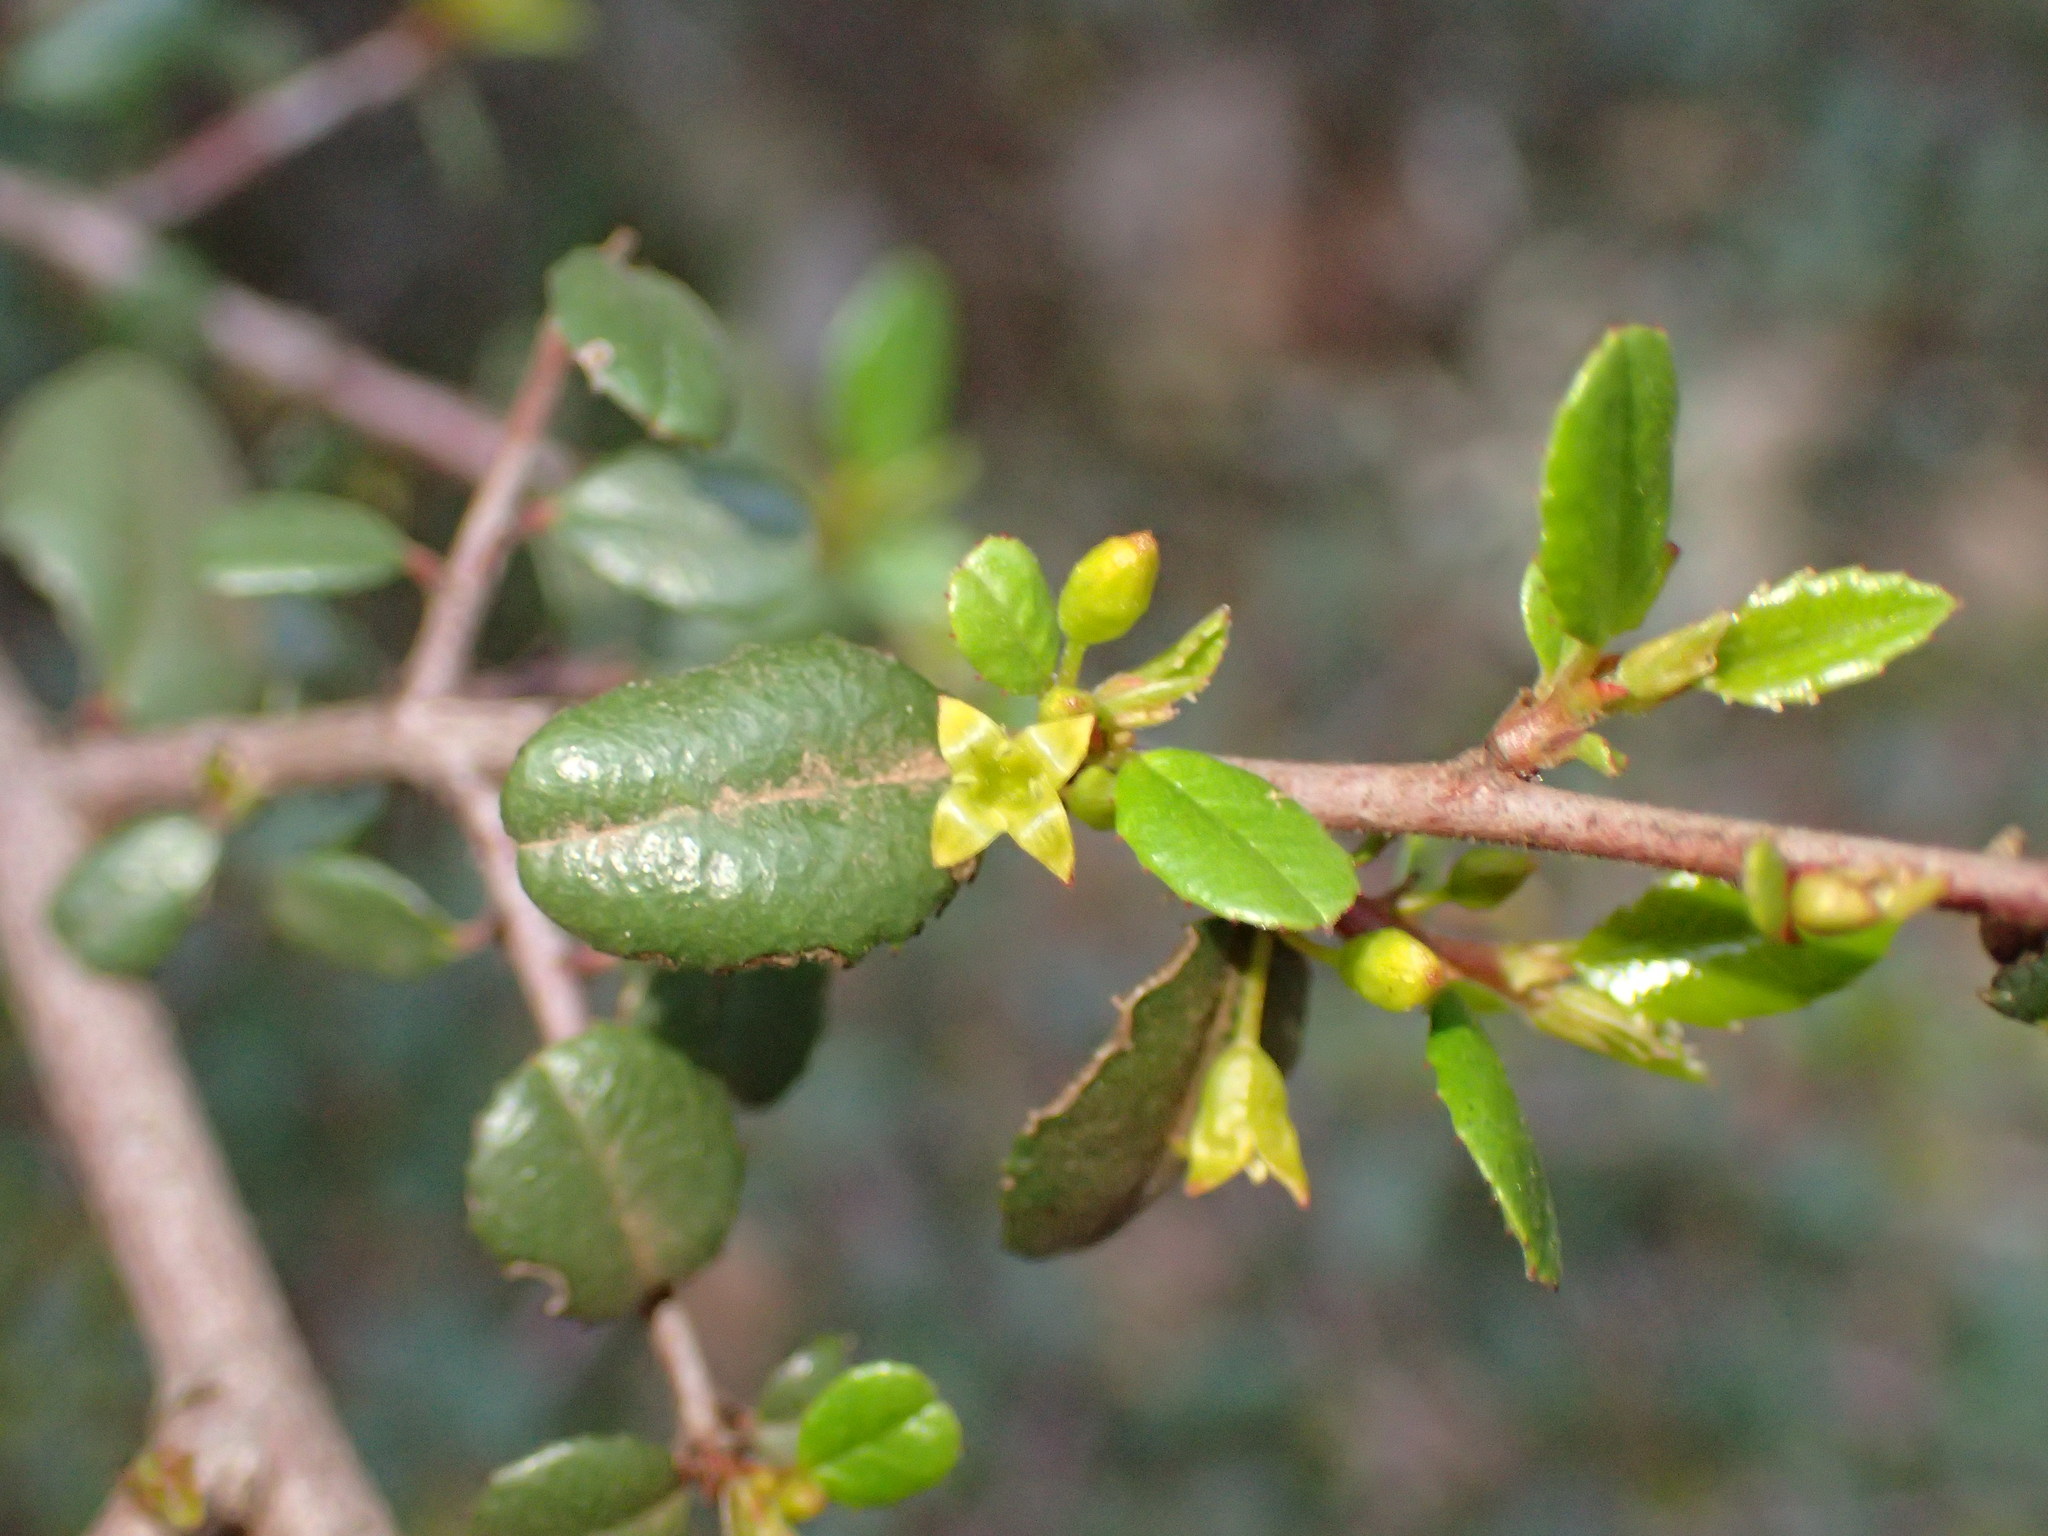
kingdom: Plantae
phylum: Tracheophyta
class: Magnoliopsida
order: Rosales
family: Rhamnaceae
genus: Endotropis
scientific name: Endotropis crocea
